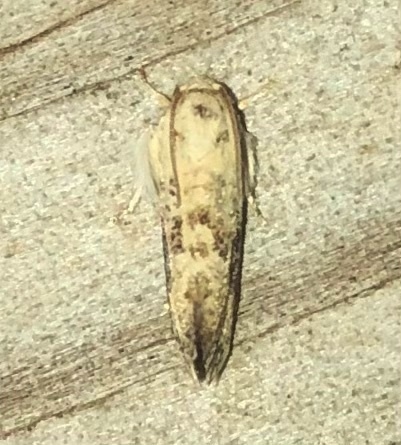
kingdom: Animalia
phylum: Arthropoda
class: Insecta
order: Lepidoptera
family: Tineidae
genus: Acrolophus
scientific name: Acrolophus mycetophagus
